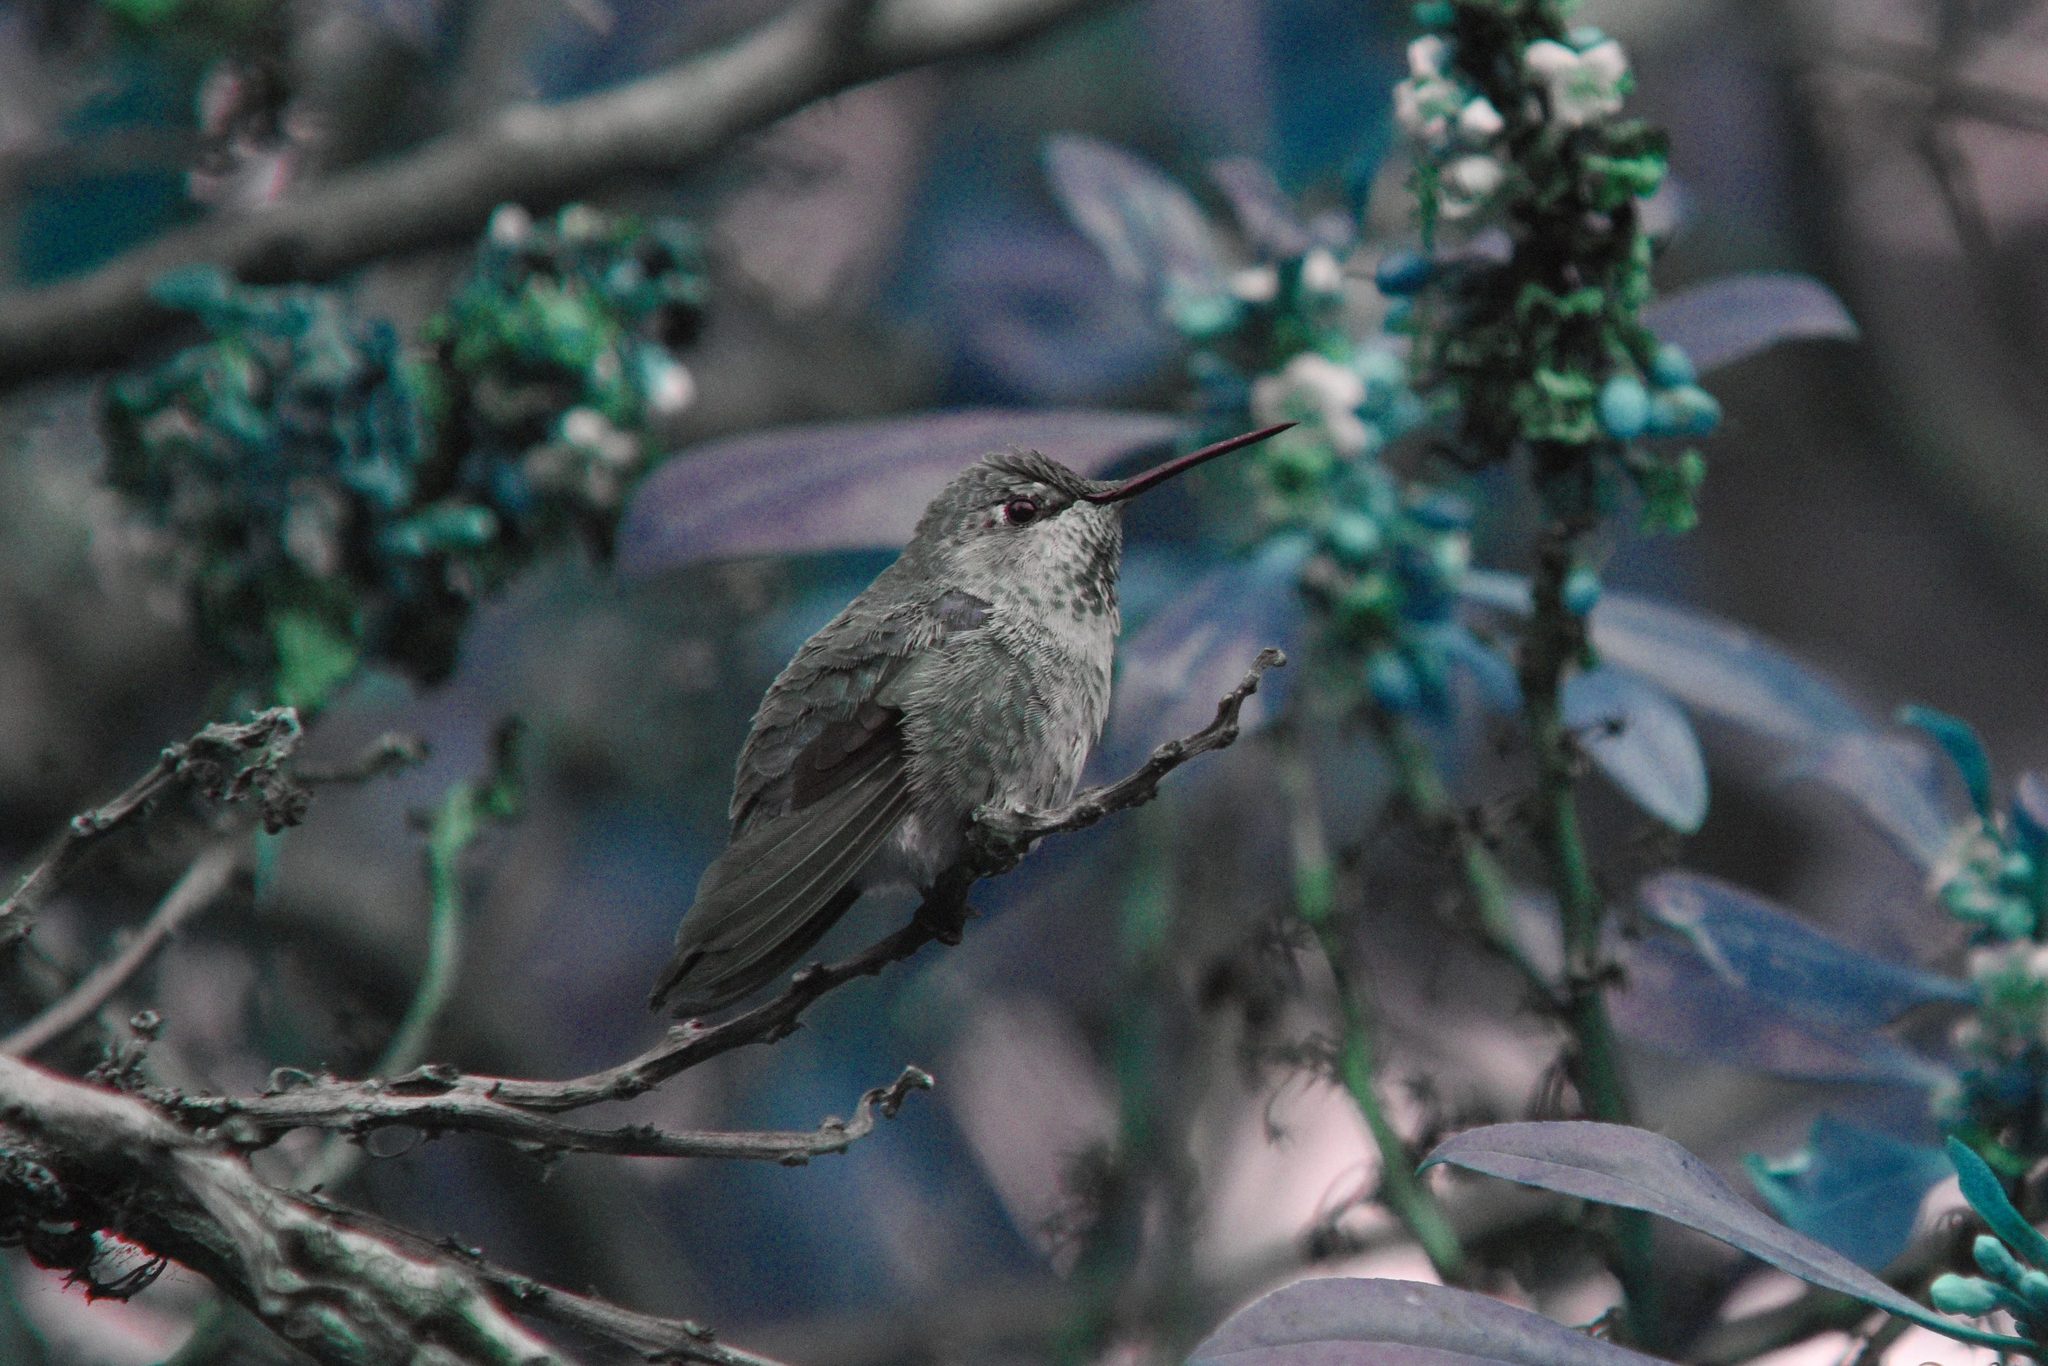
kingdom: Animalia
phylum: Chordata
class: Aves
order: Apodiformes
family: Trochilidae
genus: Calypte
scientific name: Calypte anna
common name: Anna's hummingbird
